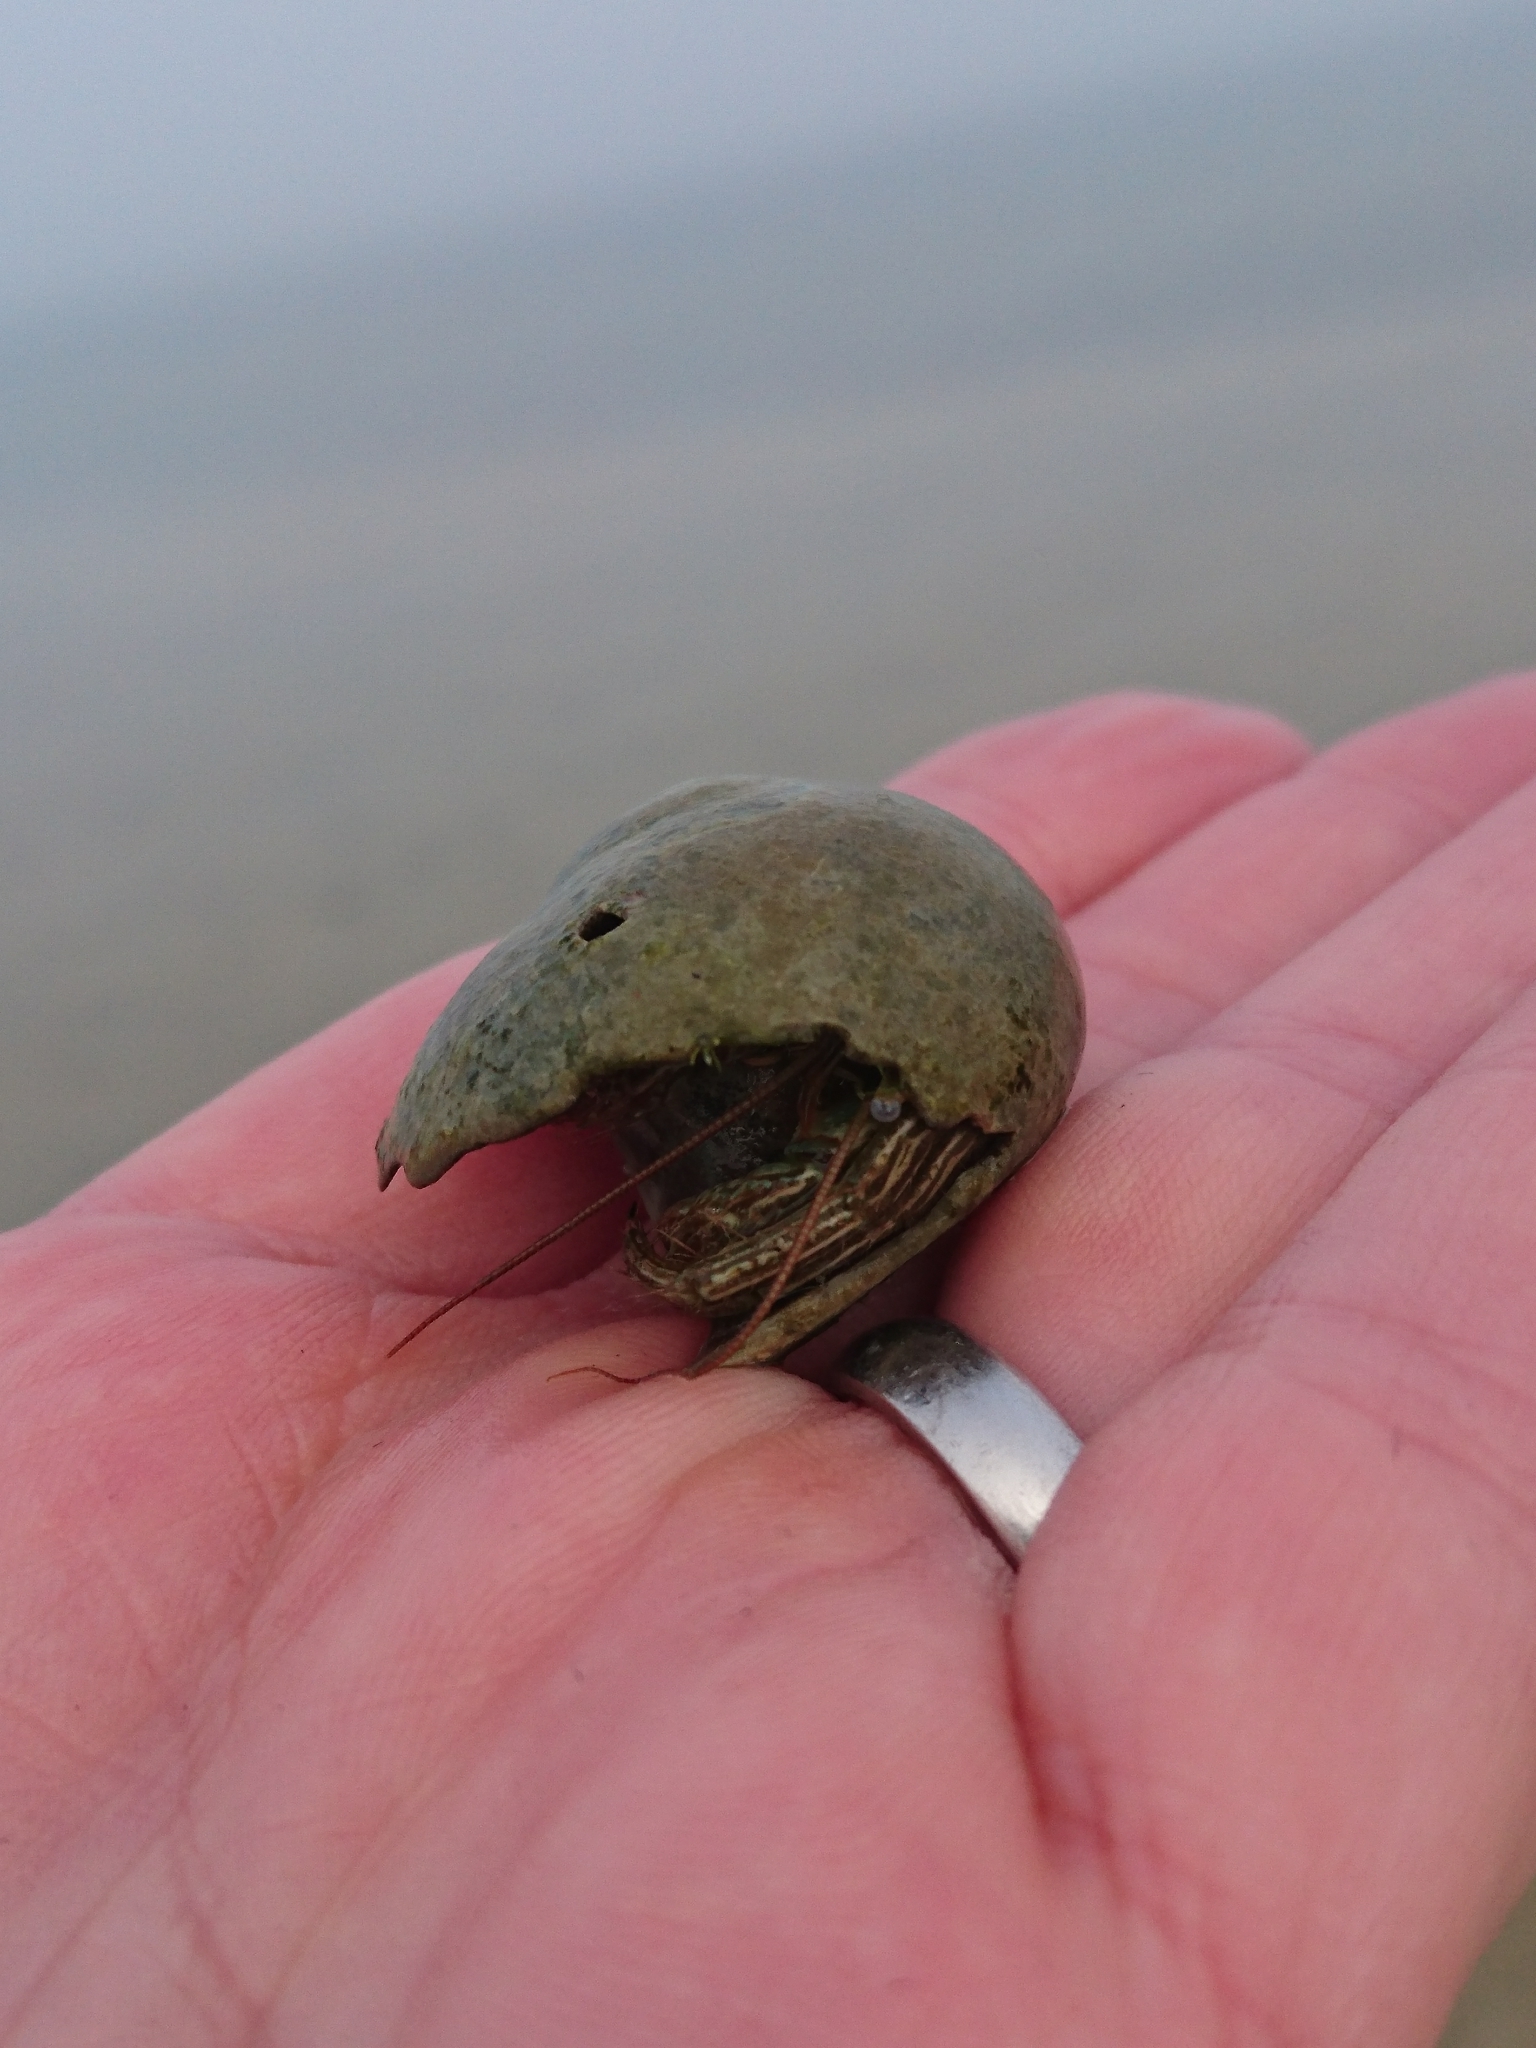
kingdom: Animalia
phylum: Arthropoda
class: Malacostraca
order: Decapoda
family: Diogenidae
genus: Clibanarius
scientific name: Clibanarius vittatus
